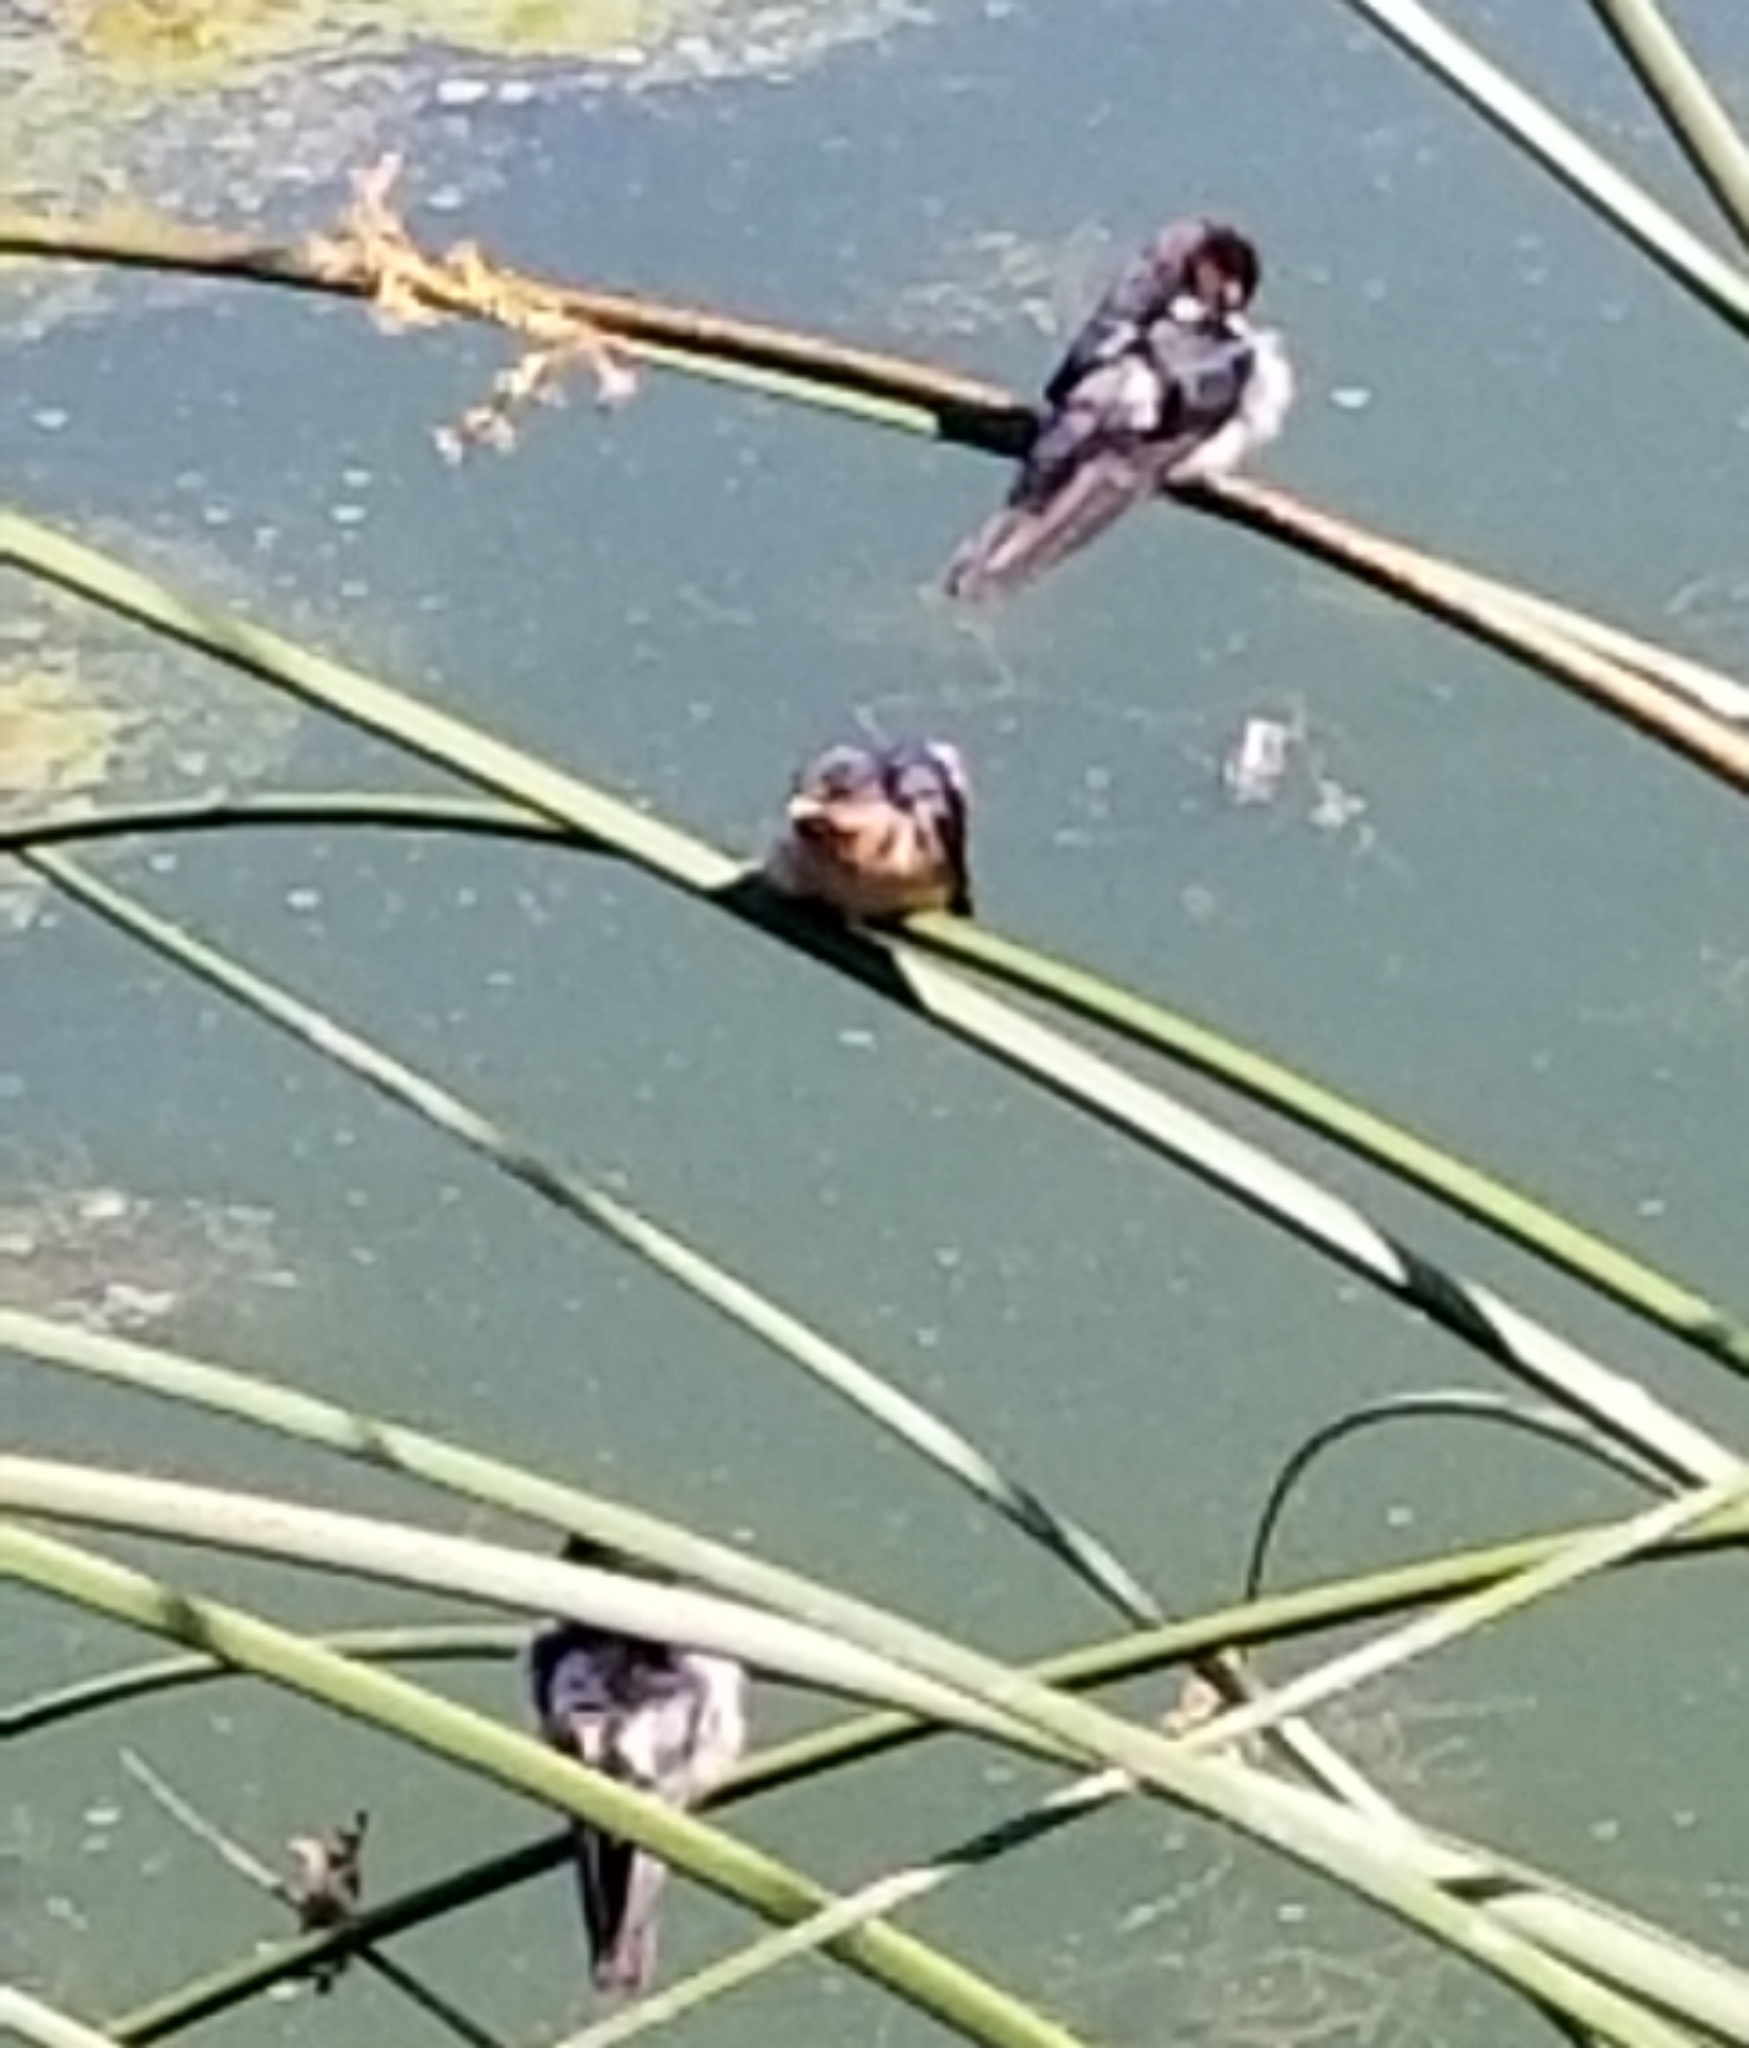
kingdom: Animalia
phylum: Chordata
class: Aves
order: Passeriformes
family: Hirundinidae
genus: Hirundo
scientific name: Hirundo rustica
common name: Barn swallow
